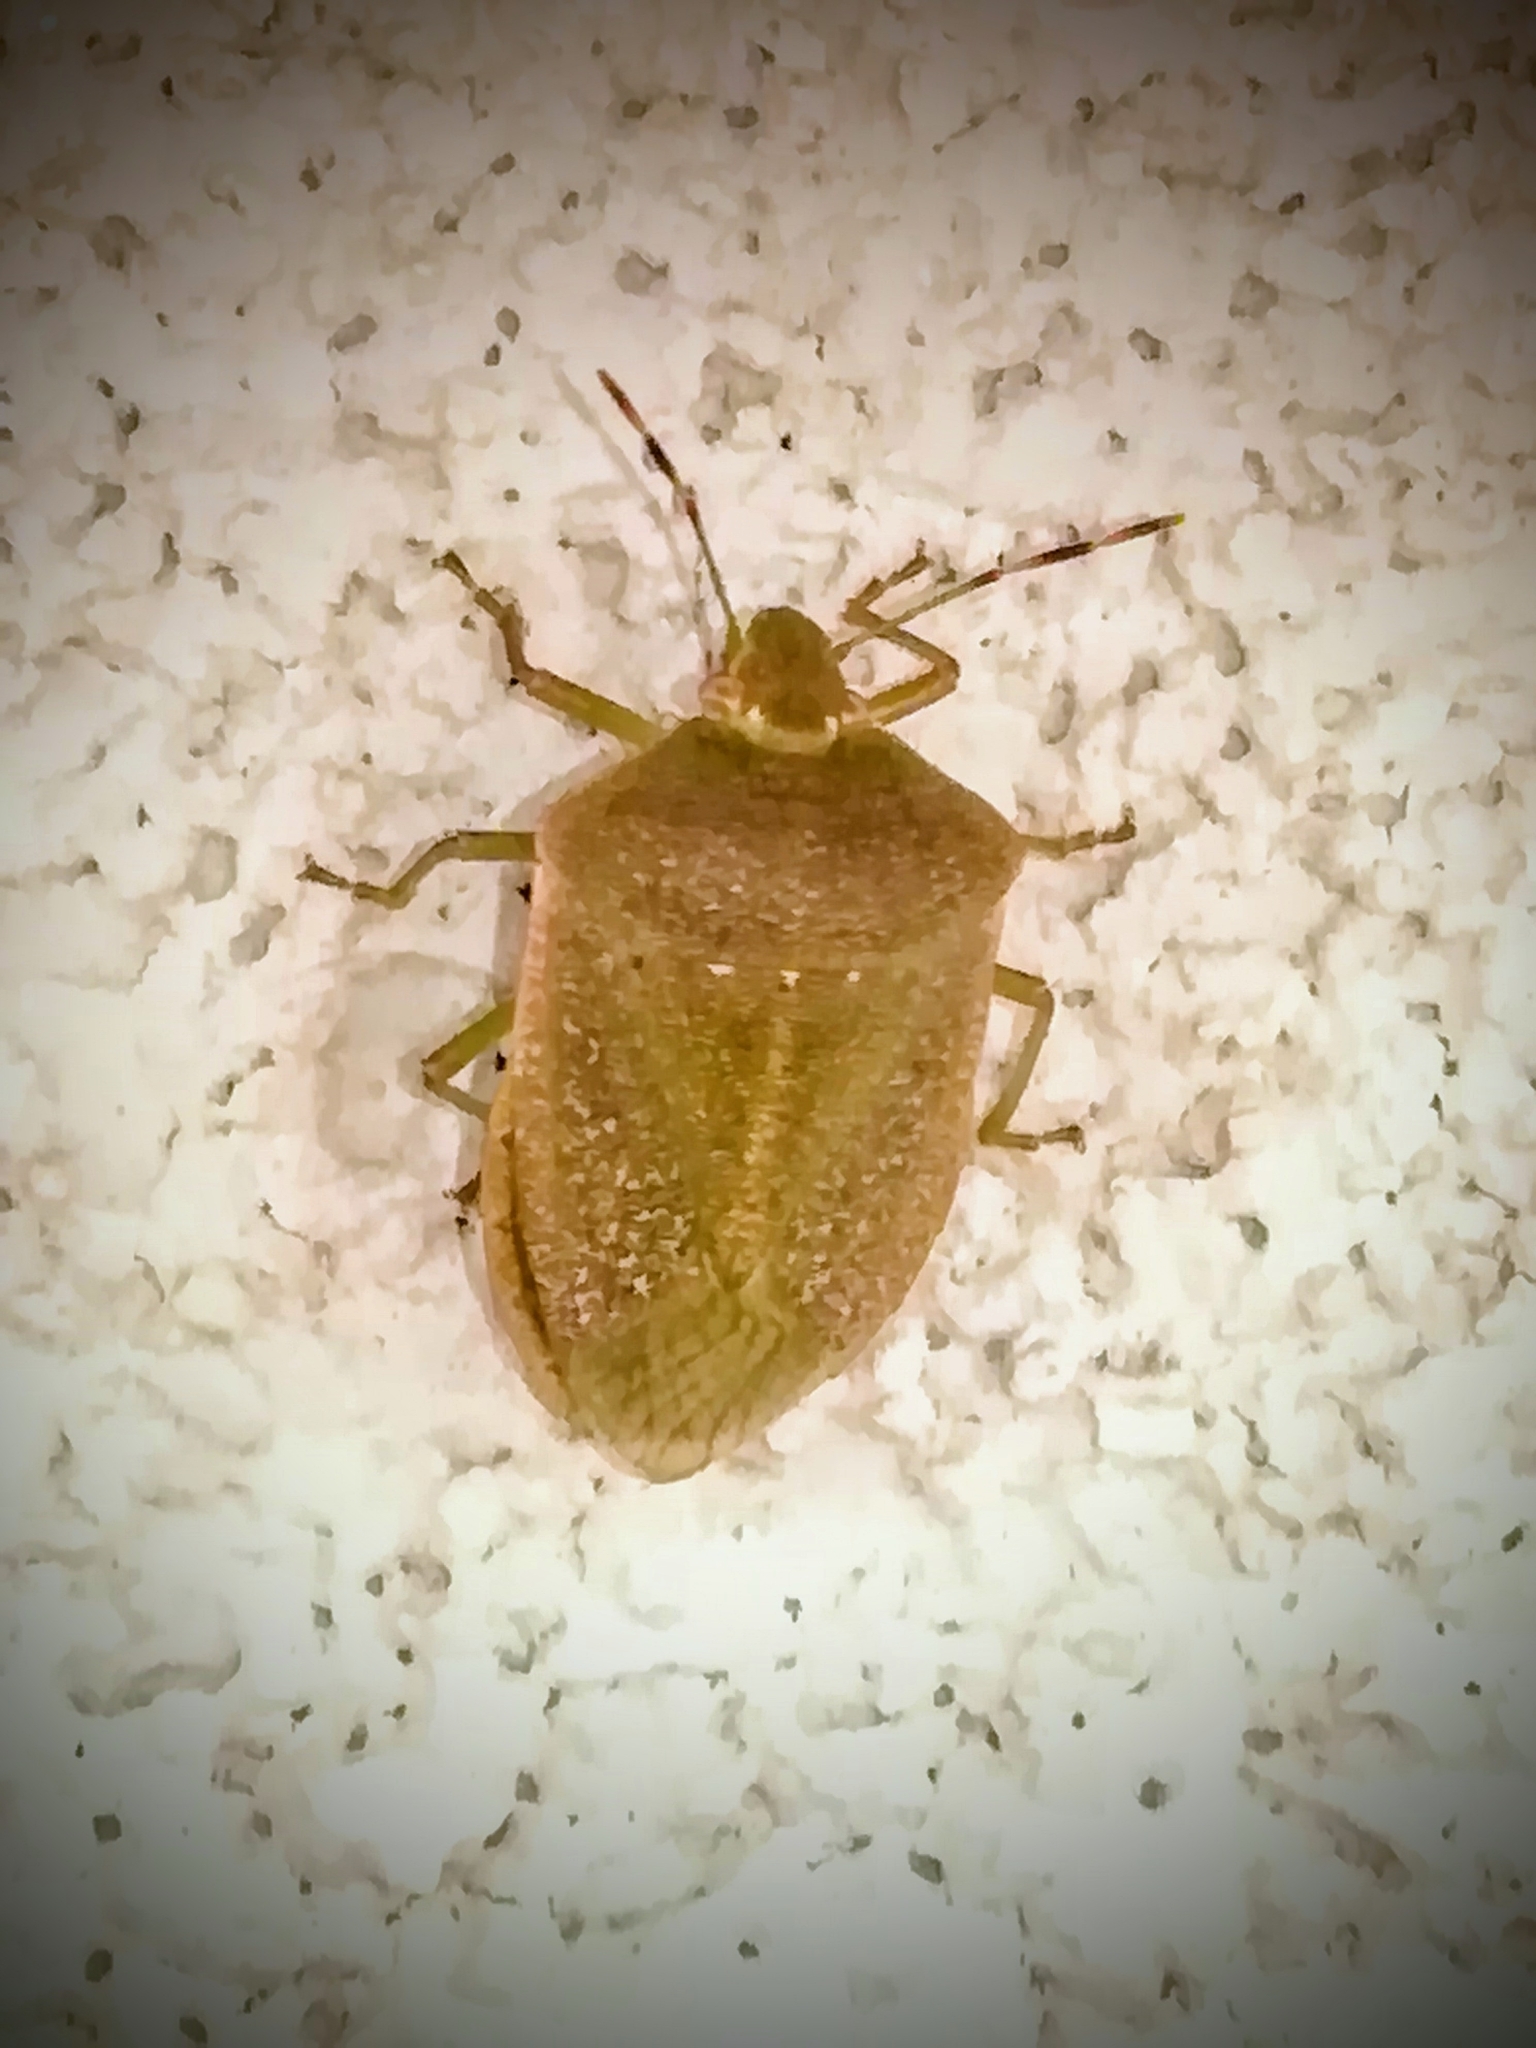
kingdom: Animalia
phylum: Arthropoda
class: Insecta
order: Hemiptera
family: Pentatomidae
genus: Nezara
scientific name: Nezara viridula
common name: Southern green stink bug
